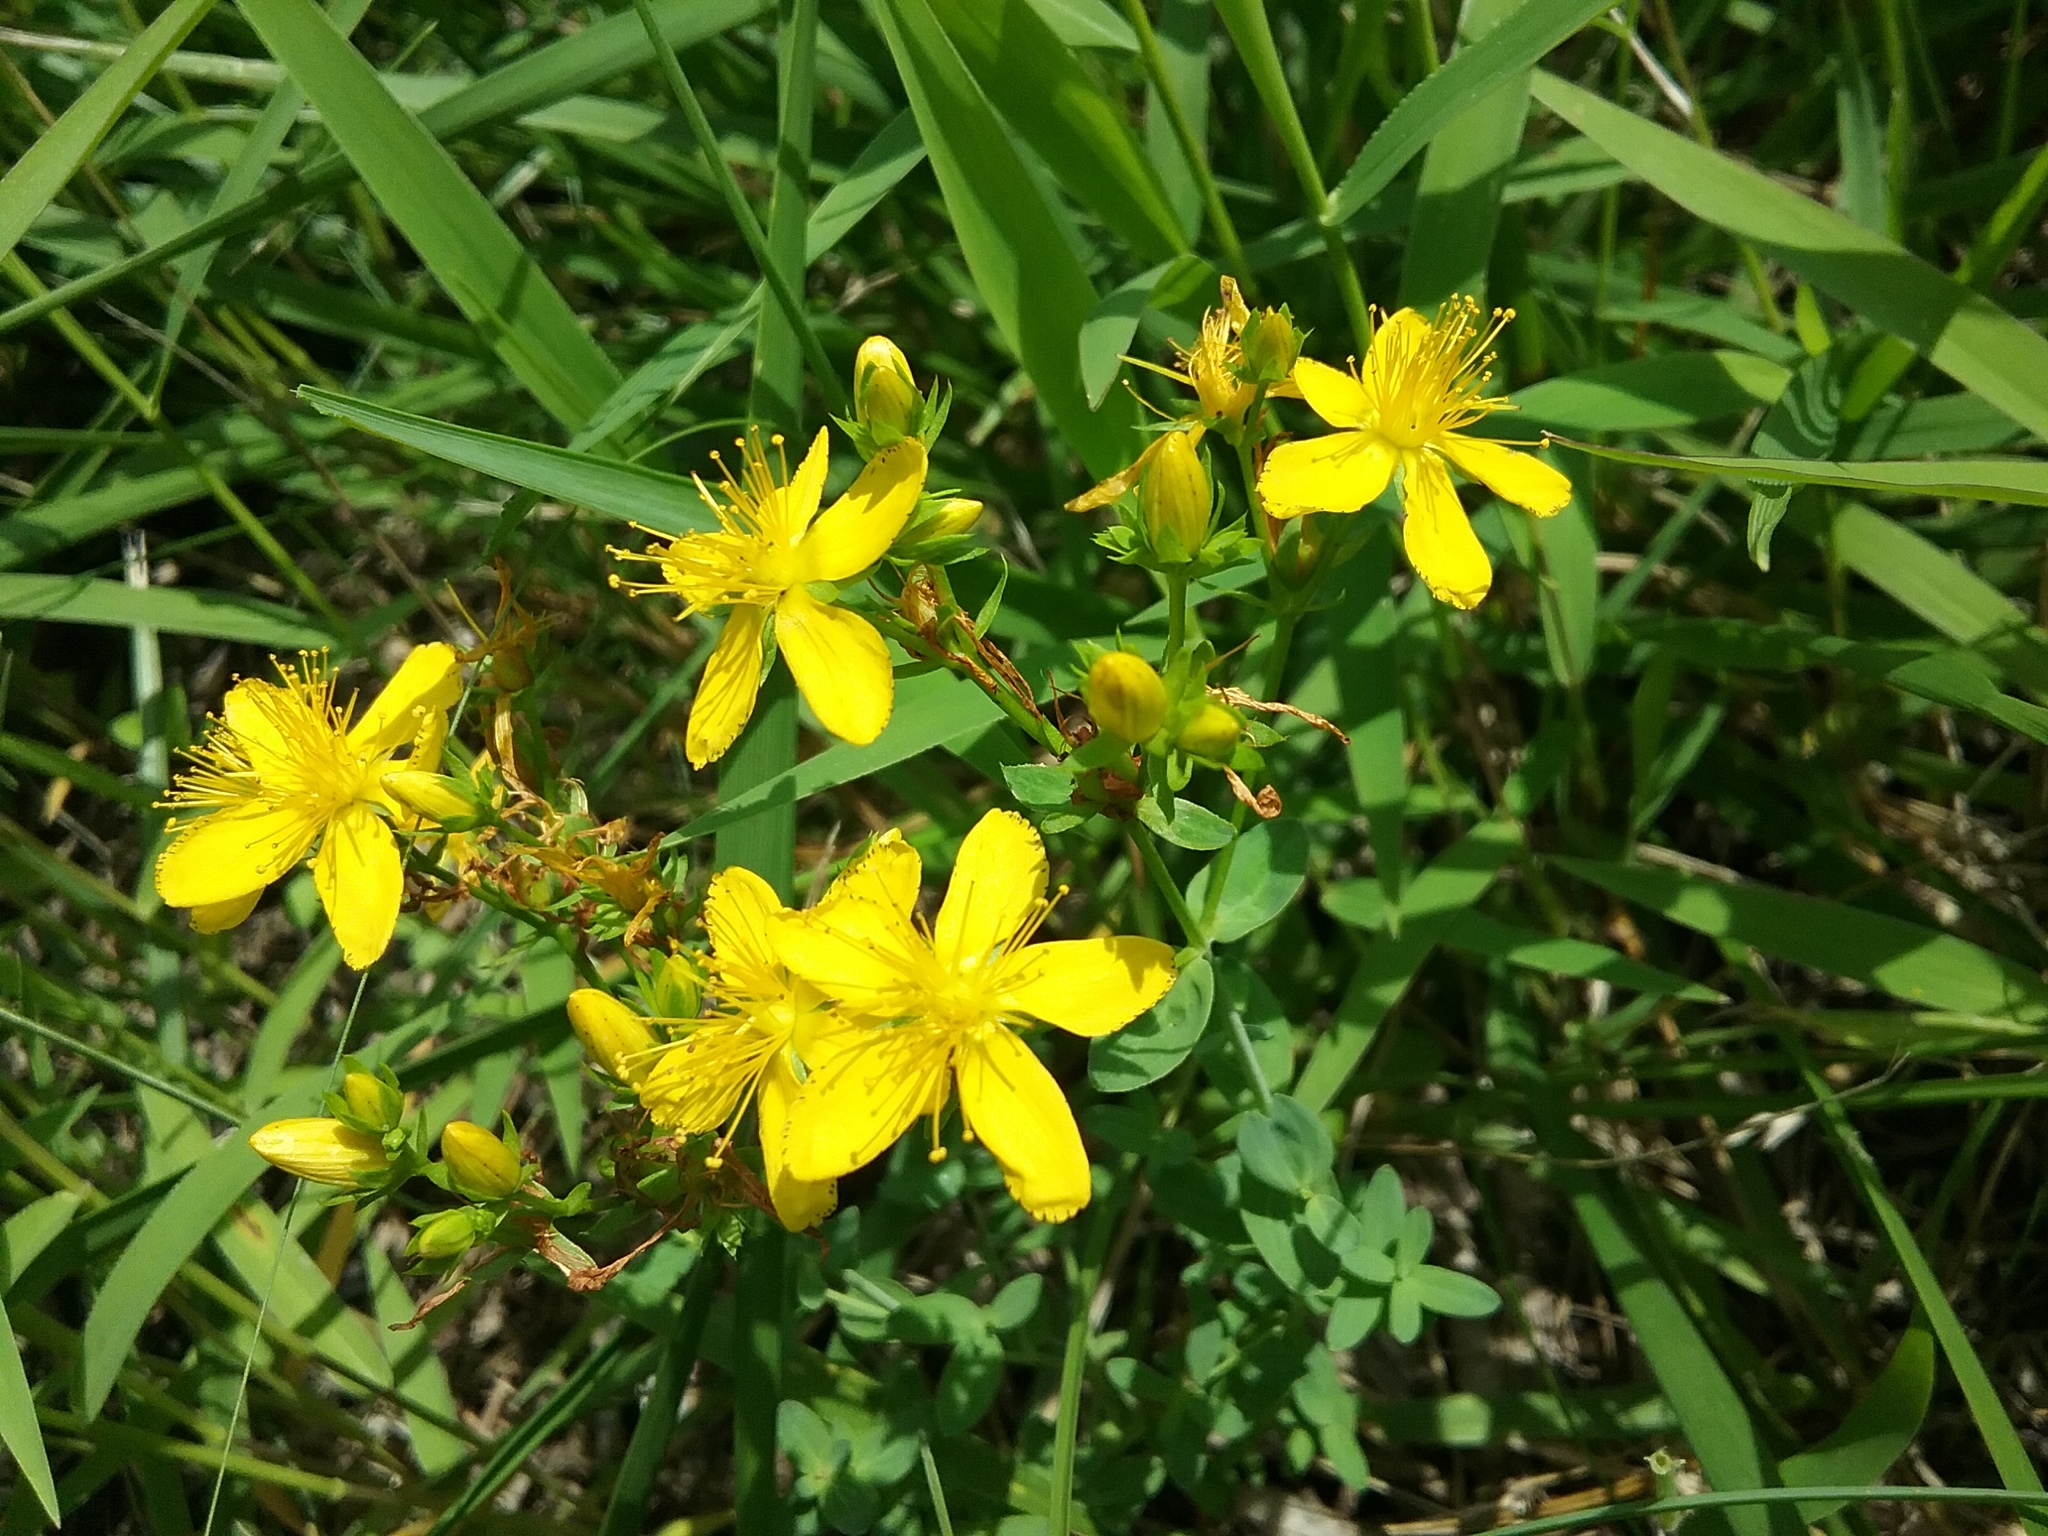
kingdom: Plantae
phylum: Tracheophyta
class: Magnoliopsida
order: Malpighiales
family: Hypericaceae
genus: Hypericum
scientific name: Hypericum perforatum
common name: Common st. johnswort
